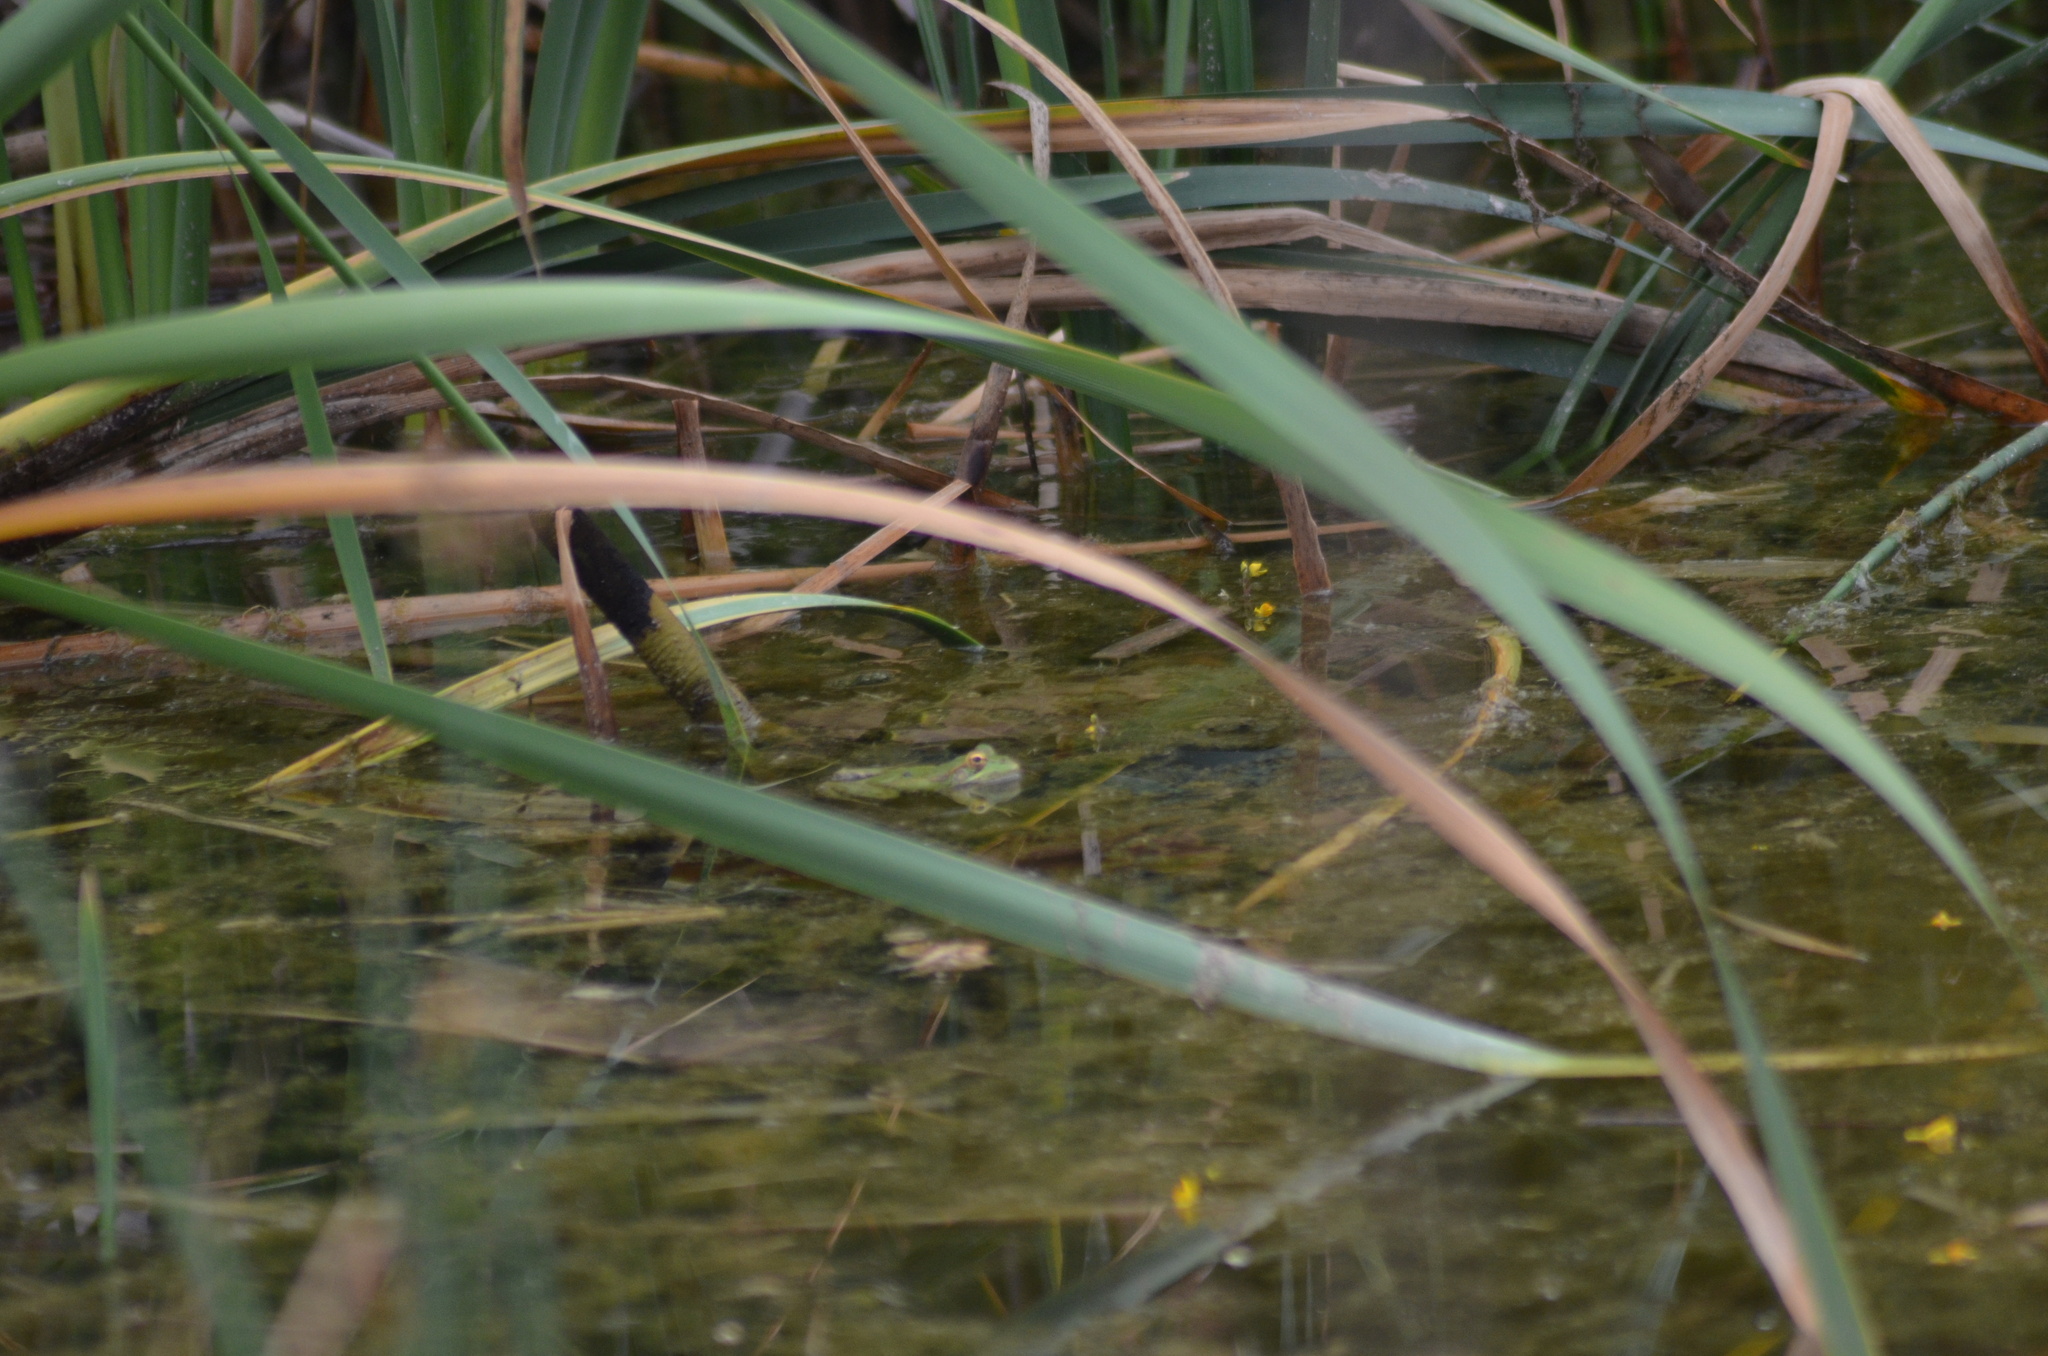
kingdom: Animalia
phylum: Chordata
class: Amphibia
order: Anura
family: Ranidae
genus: Pelophylax
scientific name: Pelophylax
